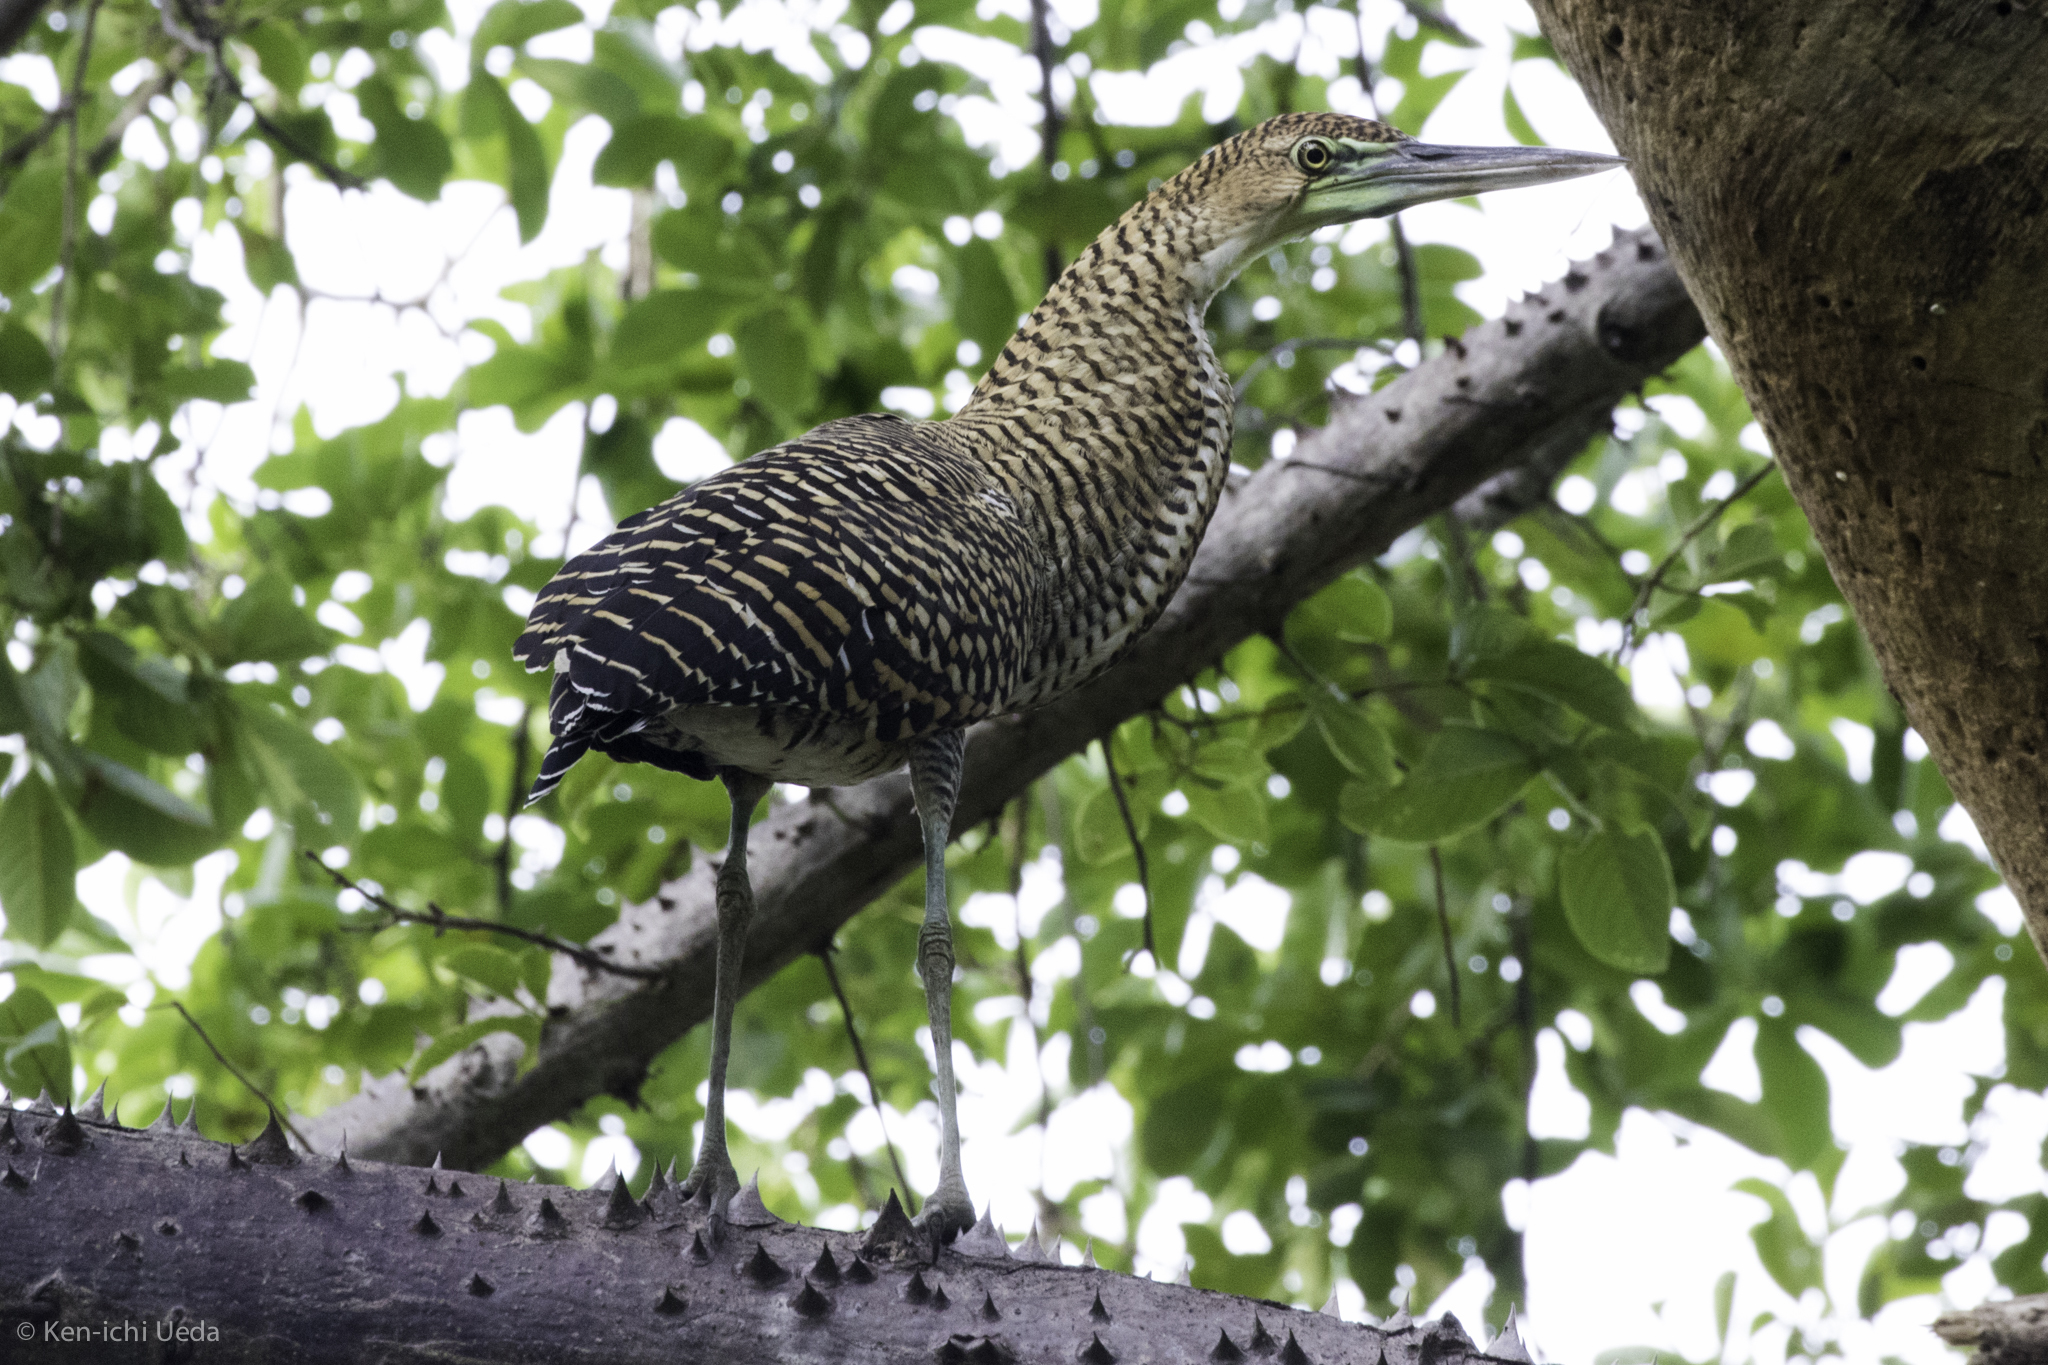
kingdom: Animalia
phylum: Chordata
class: Aves
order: Pelecaniformes
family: Ardeidae
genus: Tigrisoma
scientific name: Tigrisoma mexicanum
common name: Bare-throated tiger-heron
